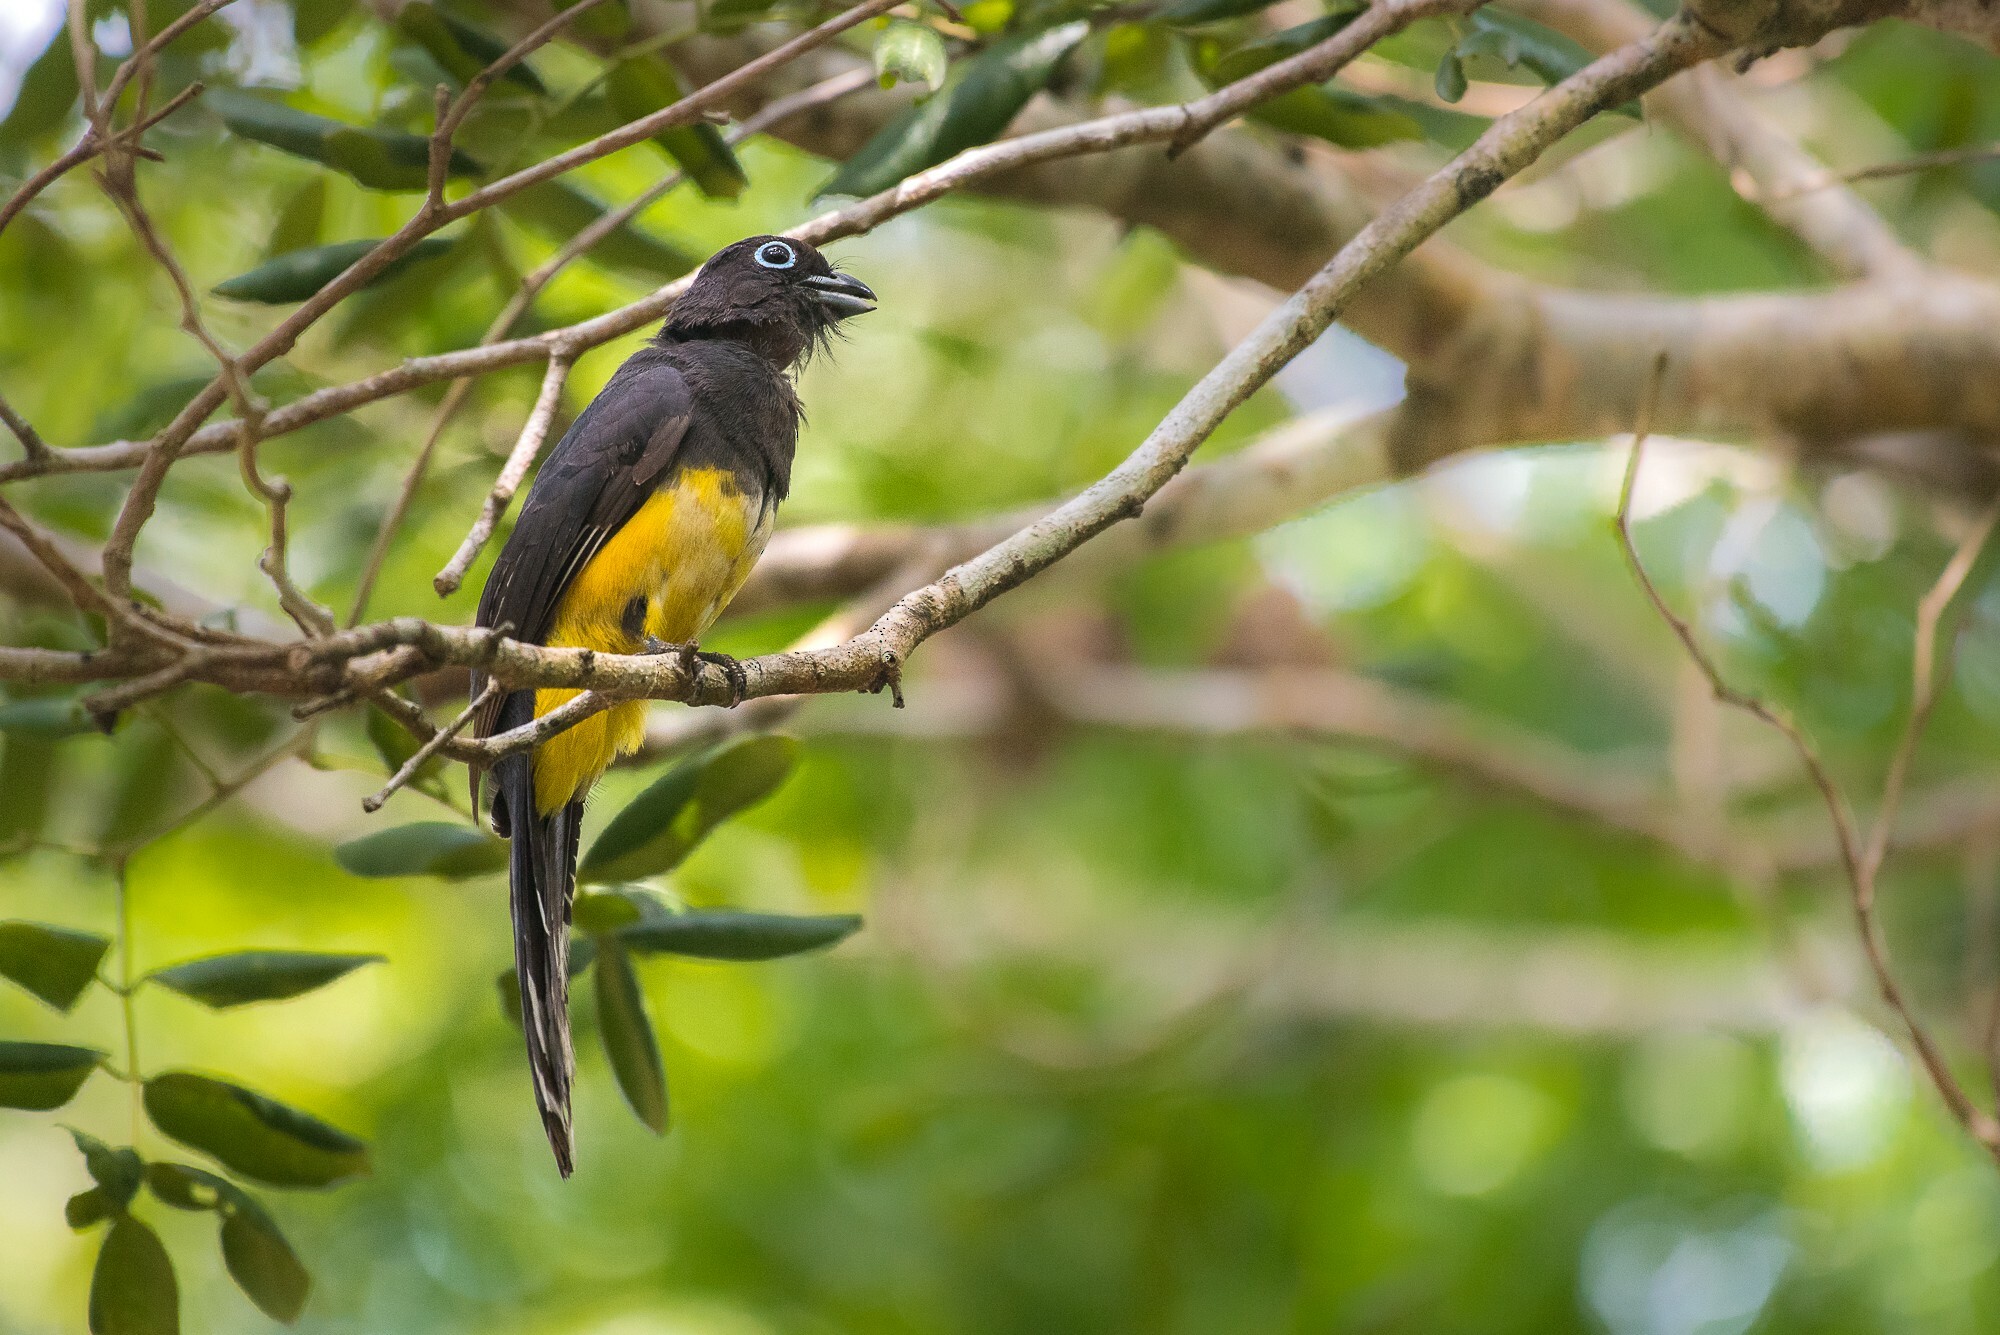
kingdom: Animalia
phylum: Chordata
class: Aves
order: Trogoniformes
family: Trogonidae
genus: Trogon
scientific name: Trogon melanocephalus
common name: Black-headed trogon
